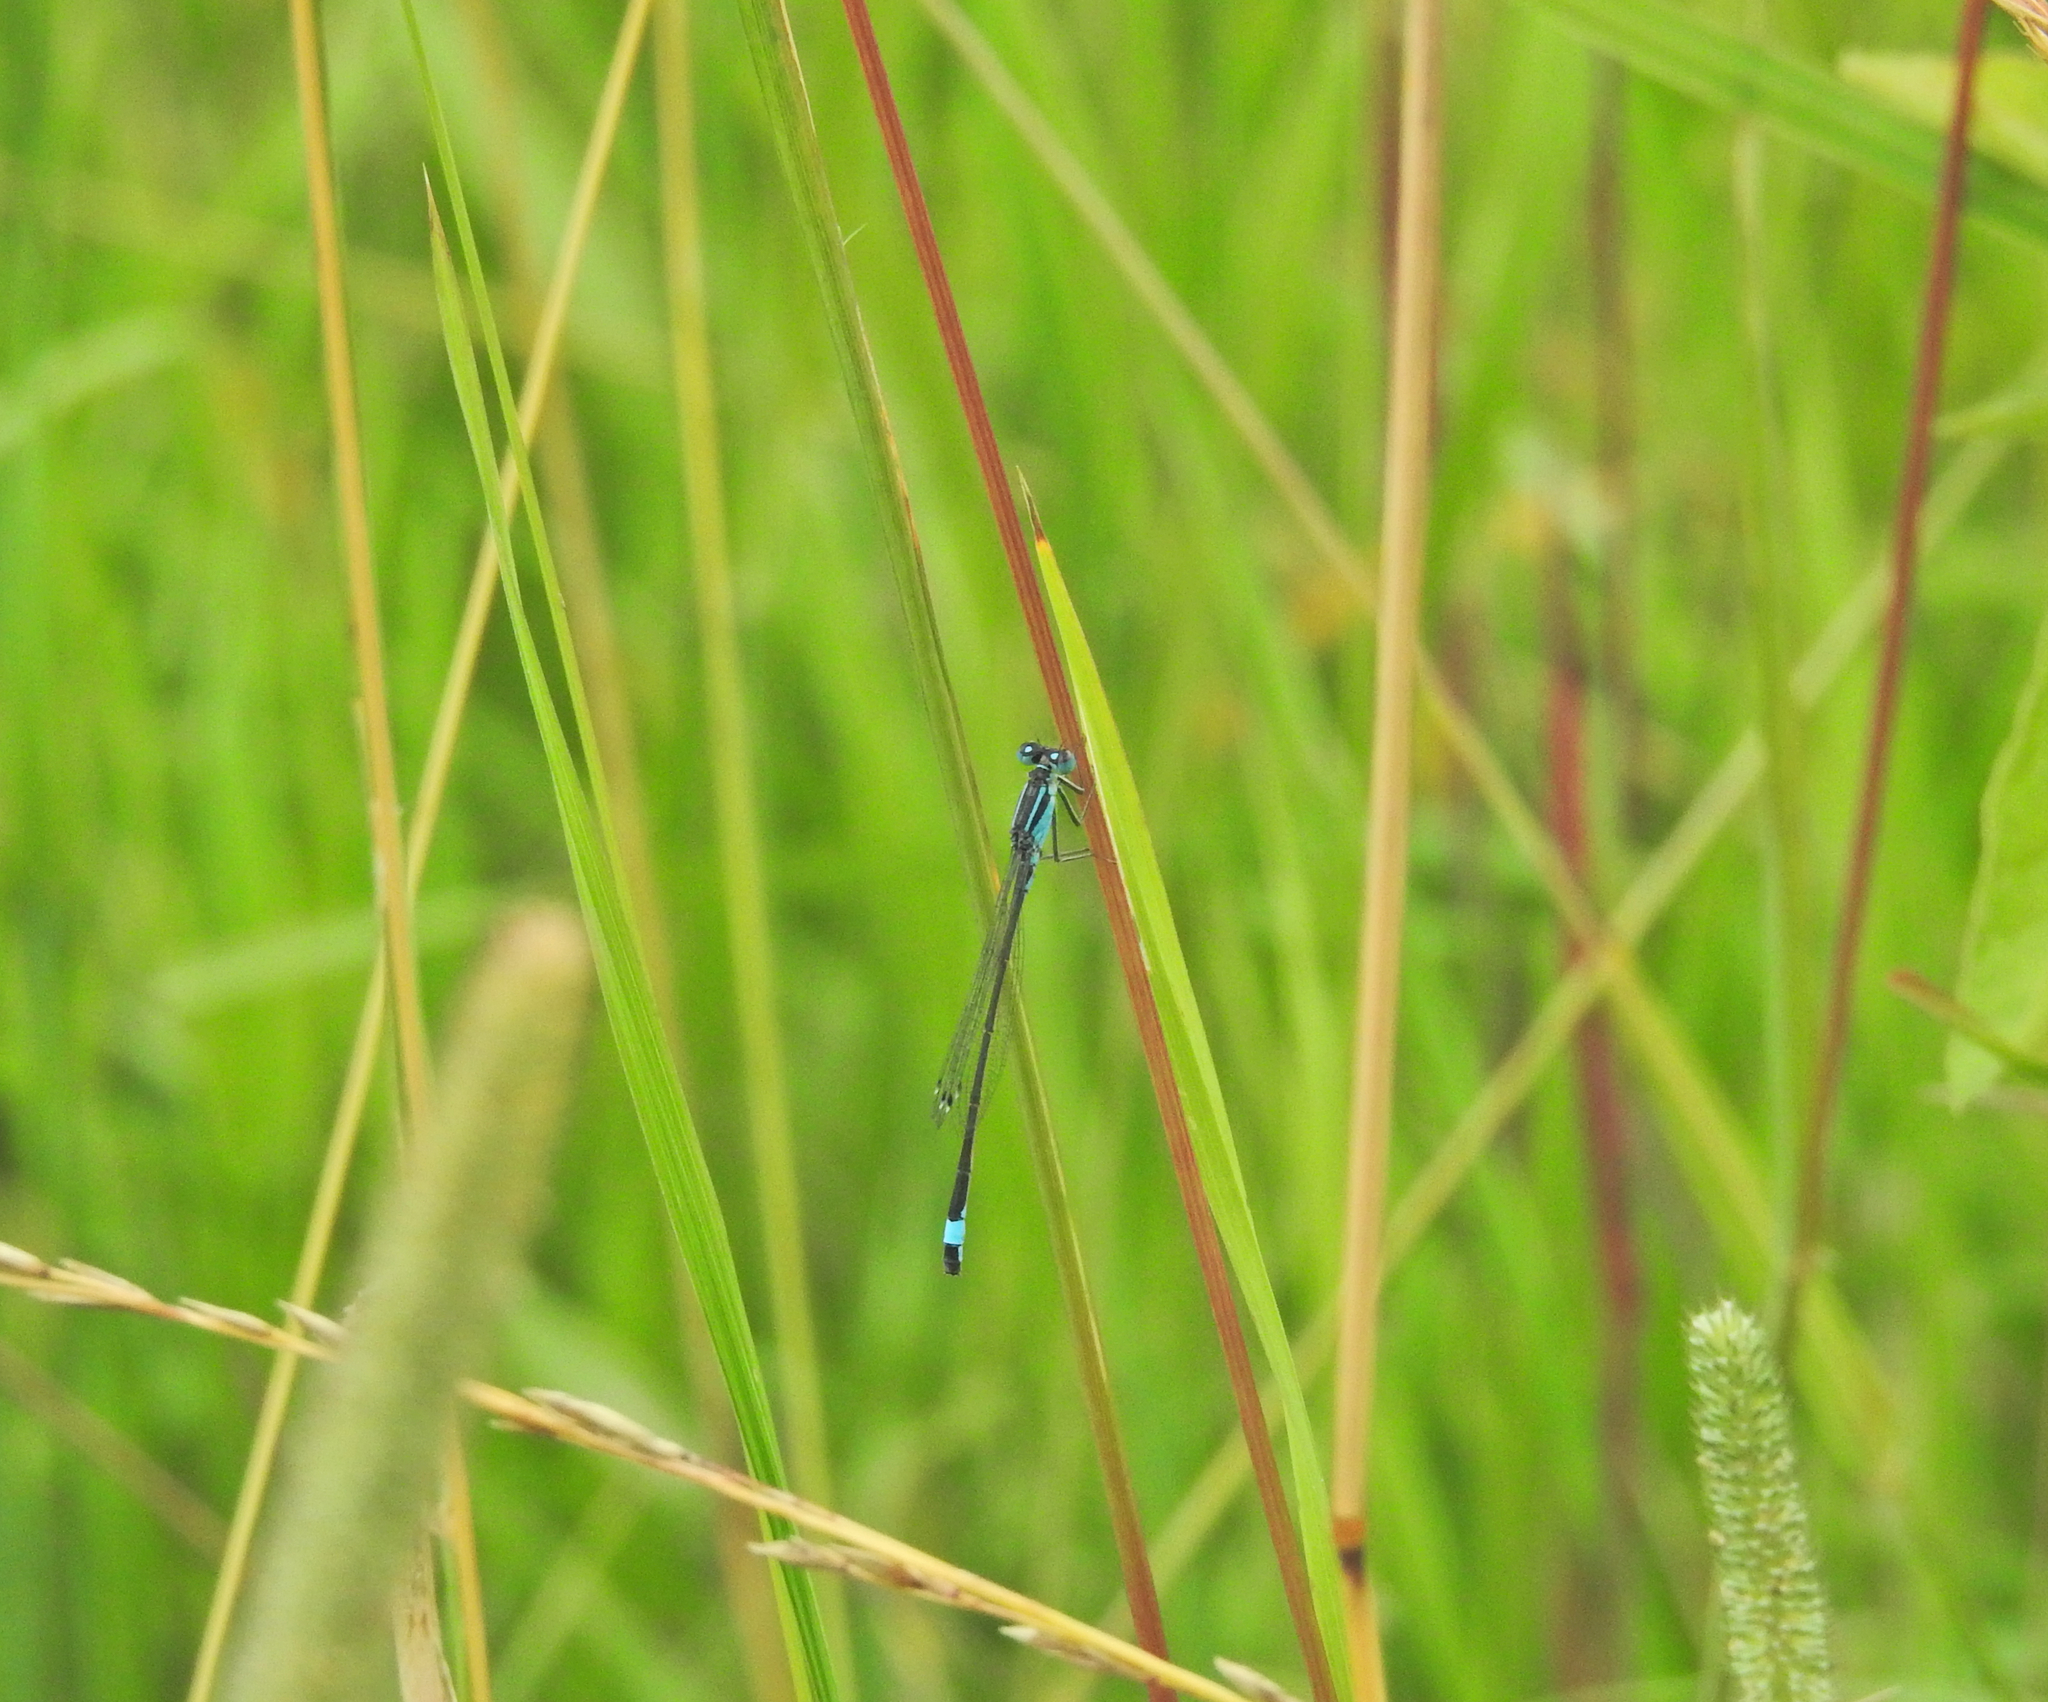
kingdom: Animalia
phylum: Arthropoda
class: Insecta
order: Odonata
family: Coenagrionidae
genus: Ischnura
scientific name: Ischnura elegans
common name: Blue-tailed damselfly
